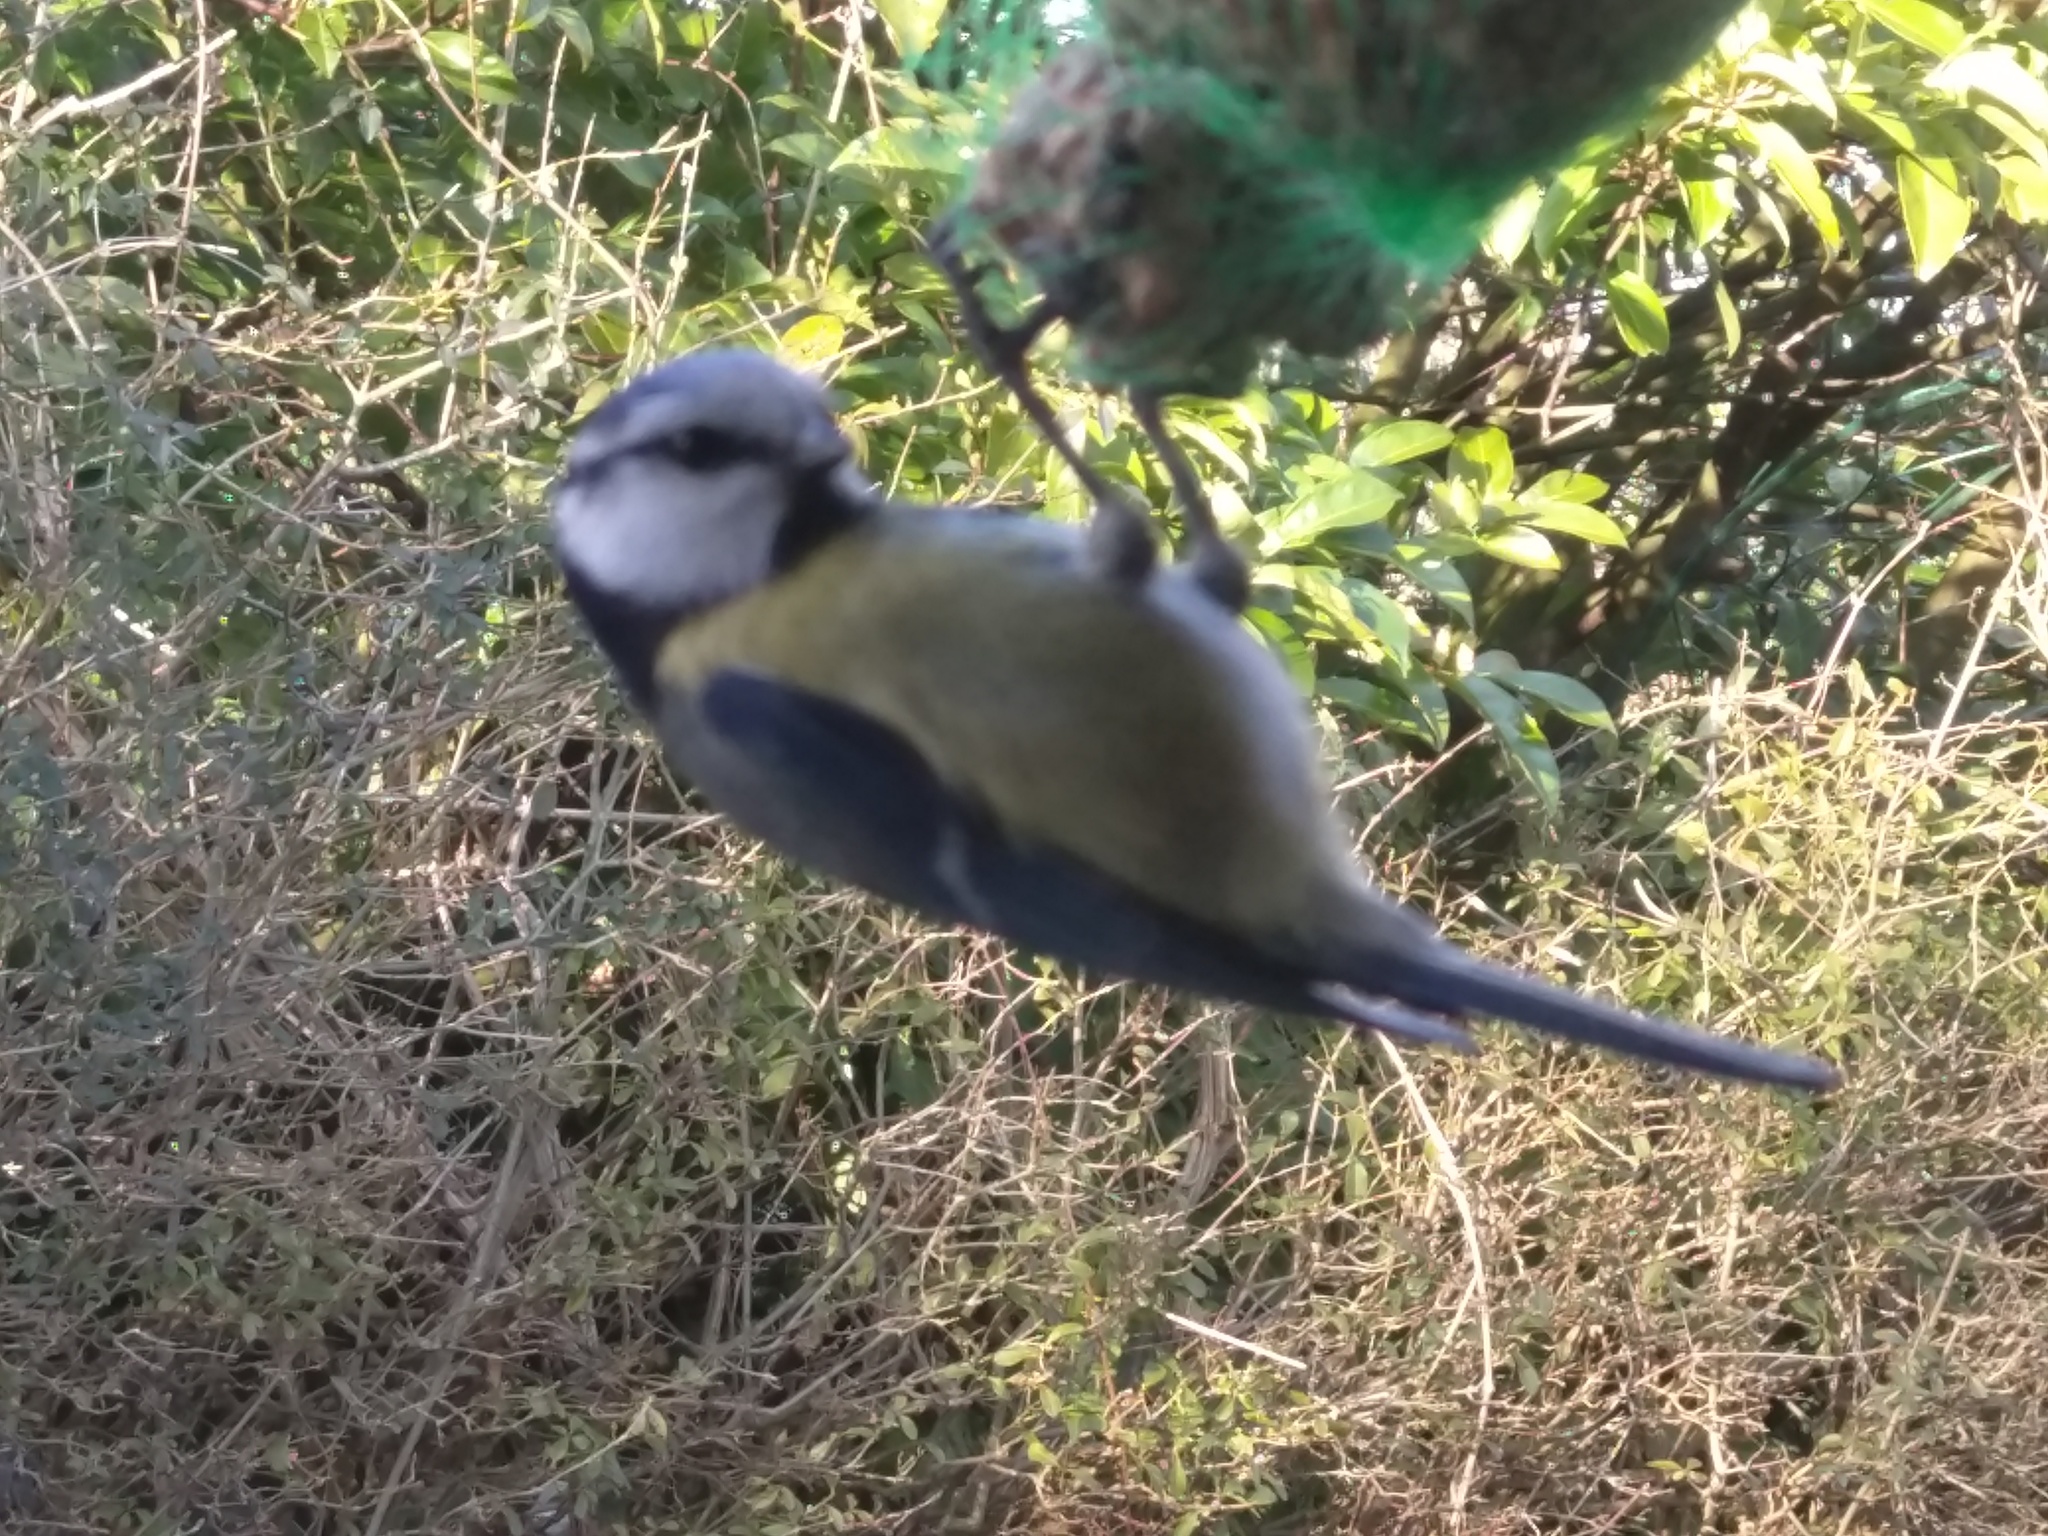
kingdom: Animalia
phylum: Chordata
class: Aves
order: Passeriformes
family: Paridae
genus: Cyanistes
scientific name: Cyanistes caeruleus
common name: Eurasian blue tit
